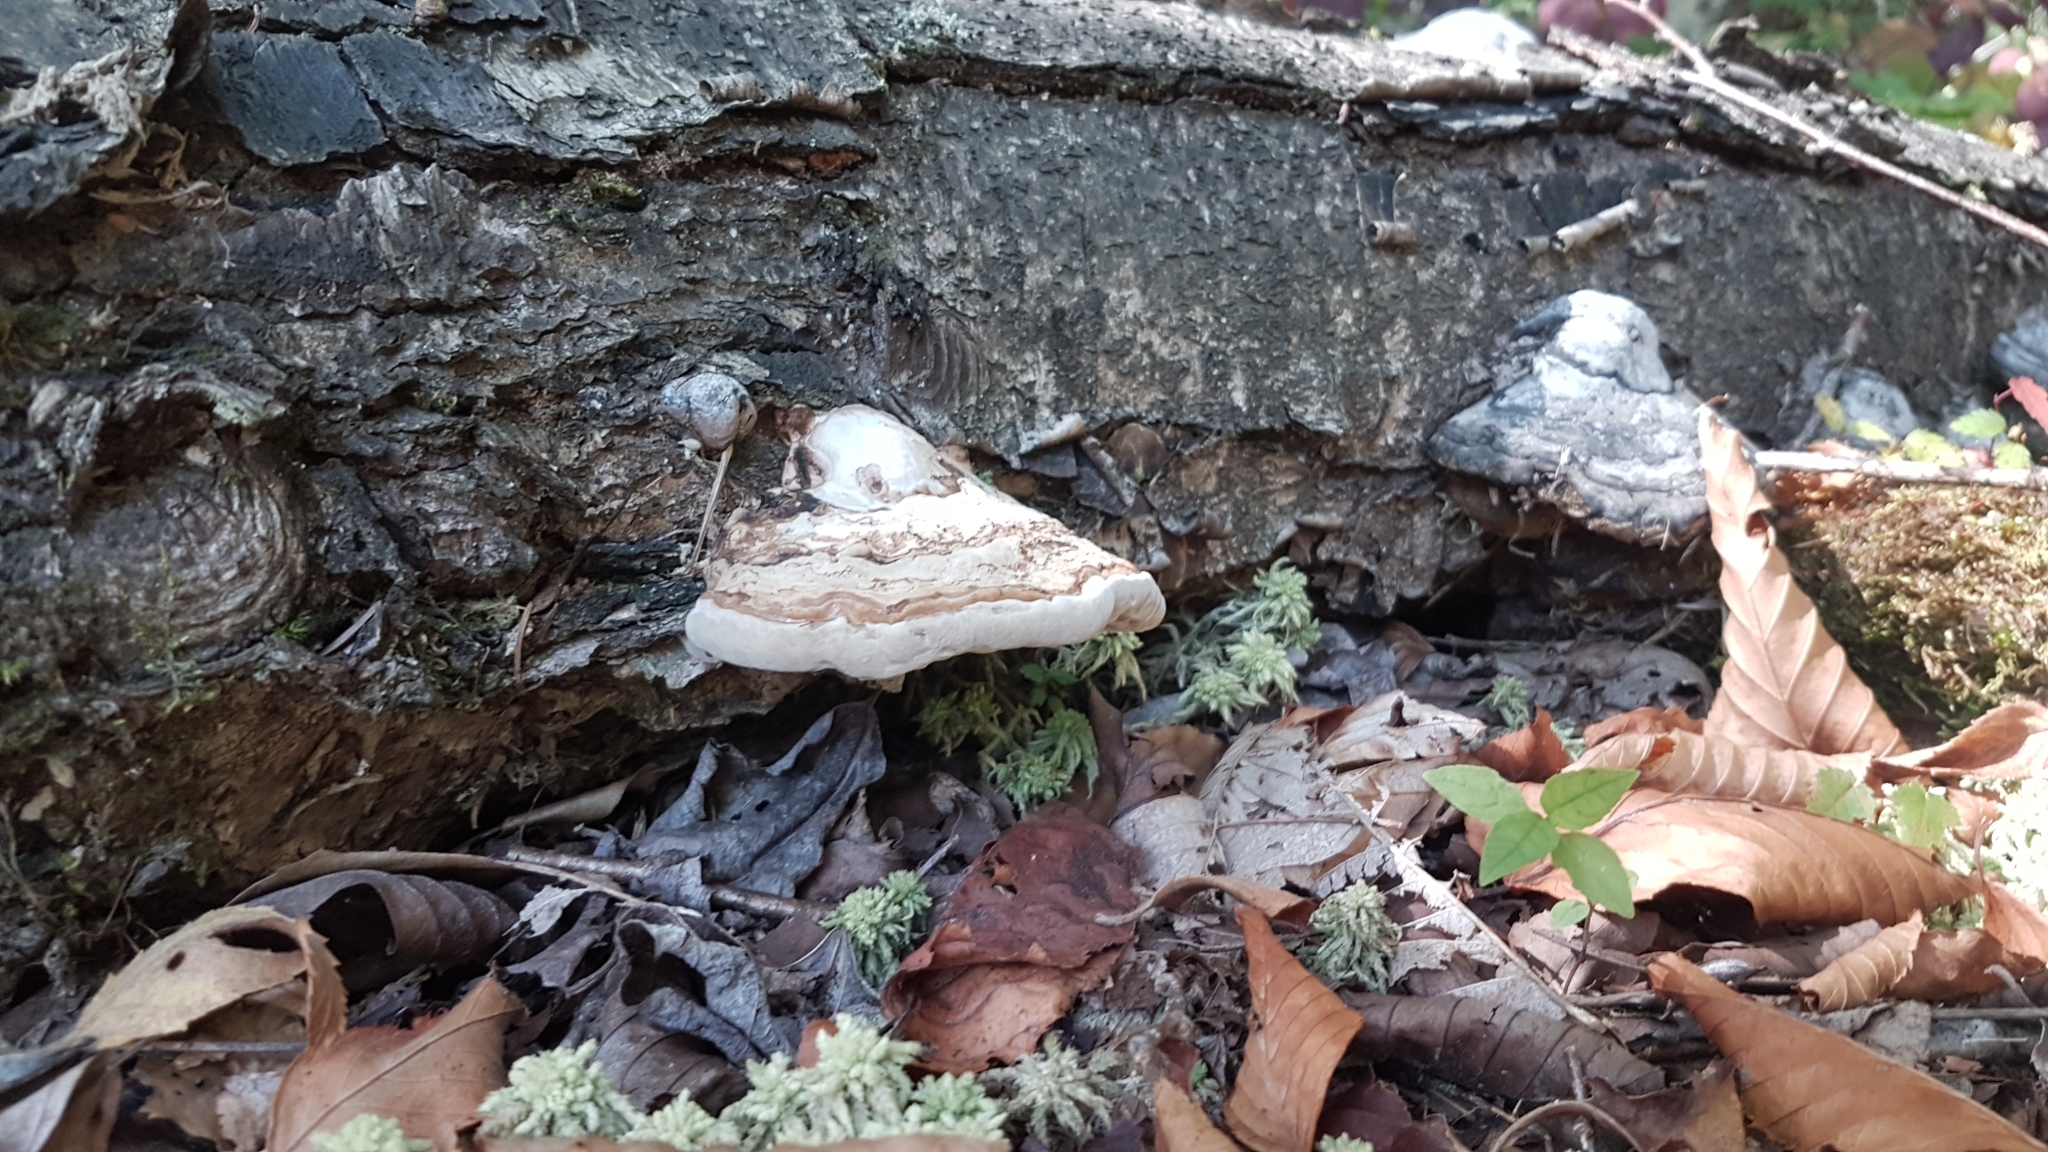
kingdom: Fungi
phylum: Basidiomycota
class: Agaricomycetes
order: Polyporales
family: Polyporaceae
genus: Fomes
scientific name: Fomes fomentarius
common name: Hoof fungus
